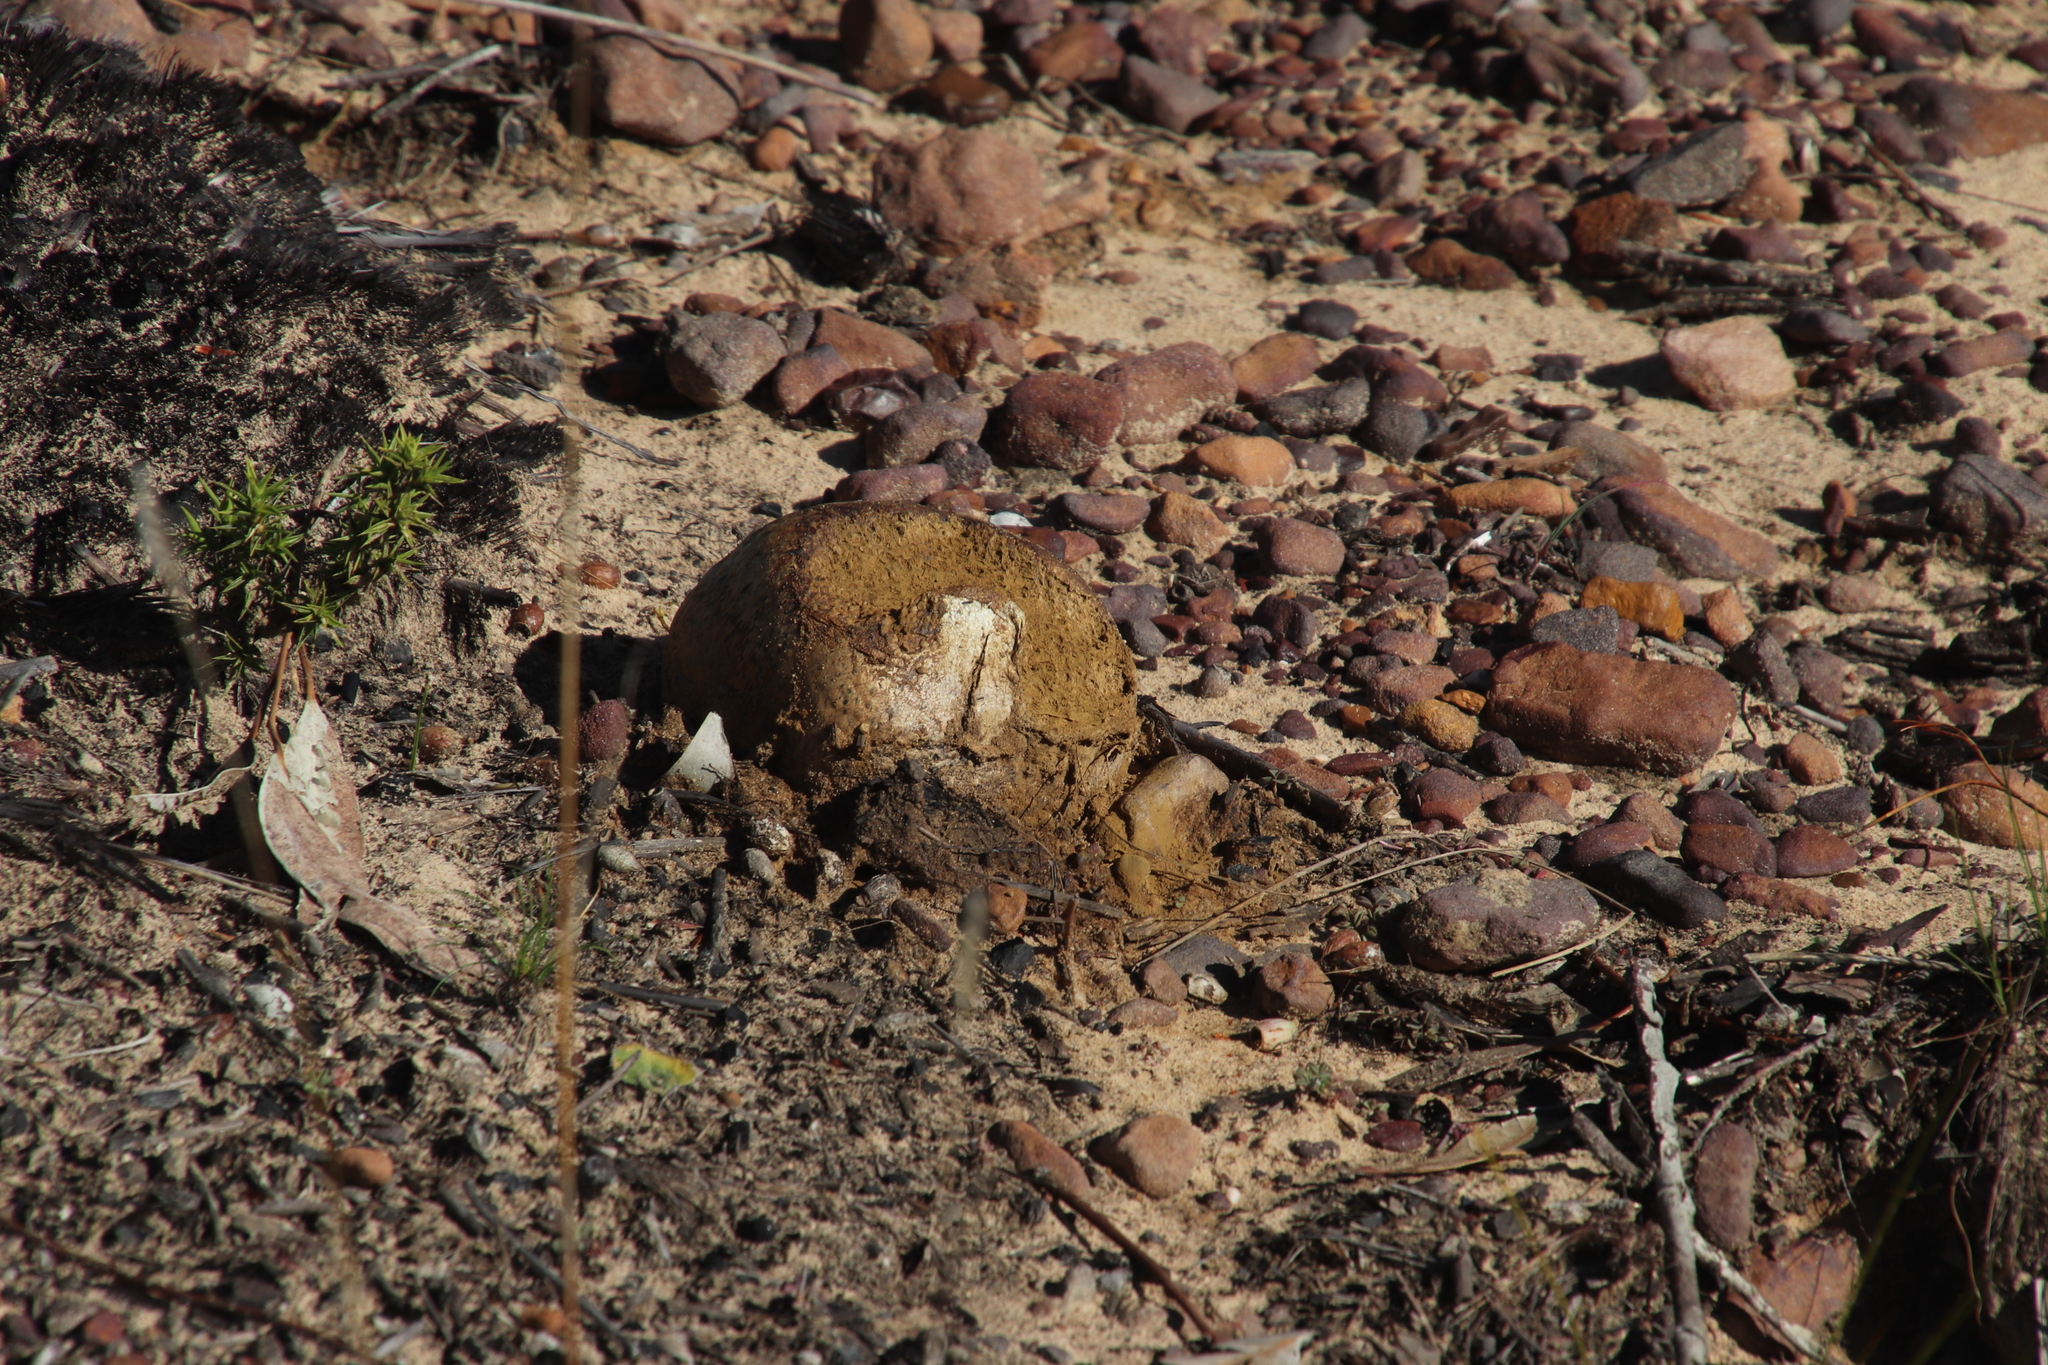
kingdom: Fungi
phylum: Basidiomycota
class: Agaricomycetes
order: Boletales
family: Sclerodermataceae
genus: Pisolithus
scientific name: Pisolithus arhizus
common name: Dyeball
